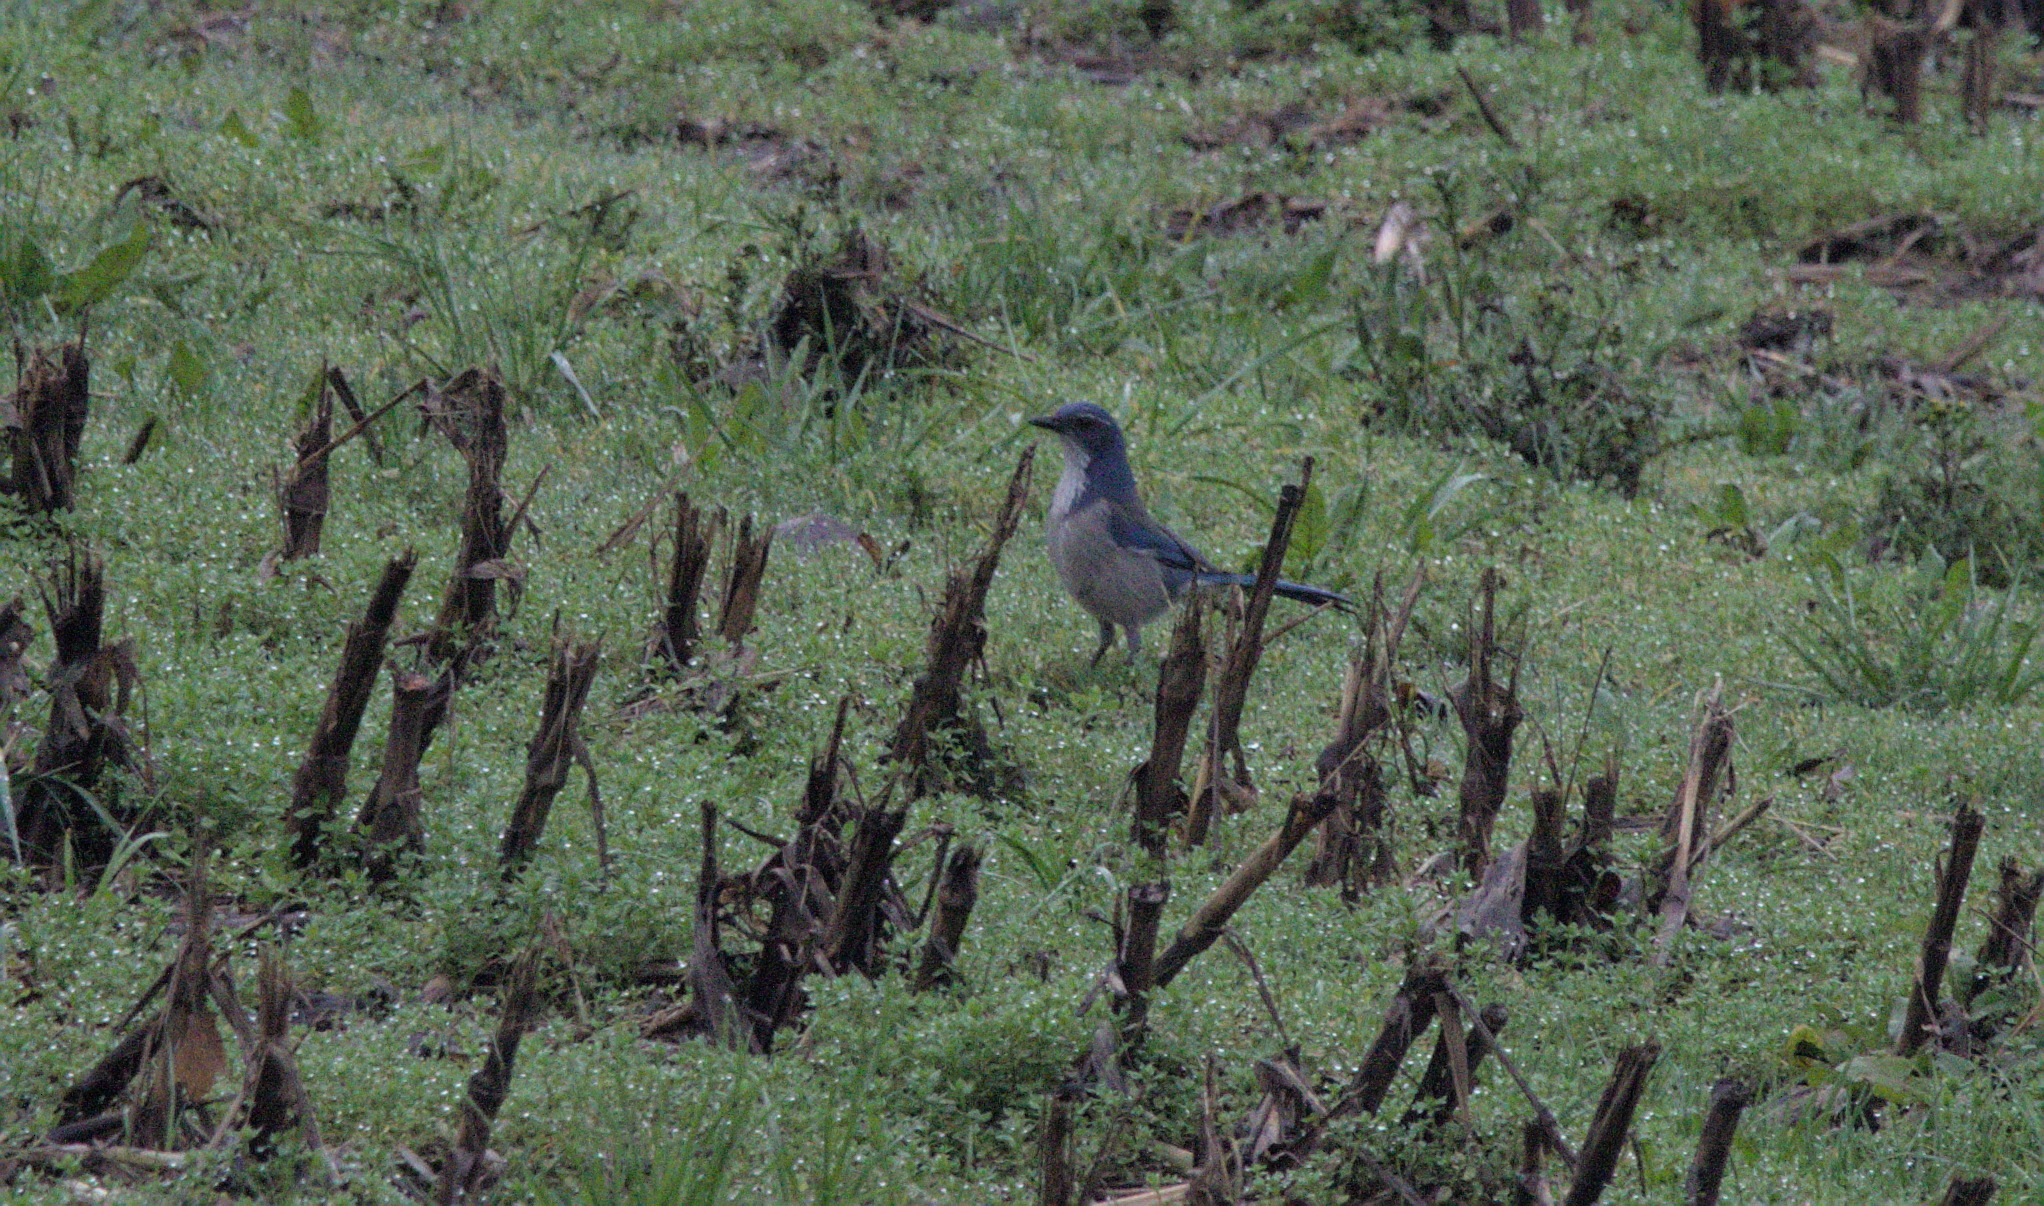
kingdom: Animalia
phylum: Chordata
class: Aves
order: Passeriformes
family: Corvidae
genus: Aphelocoma
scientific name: Aphelocoma californica
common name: California scrub-jay
